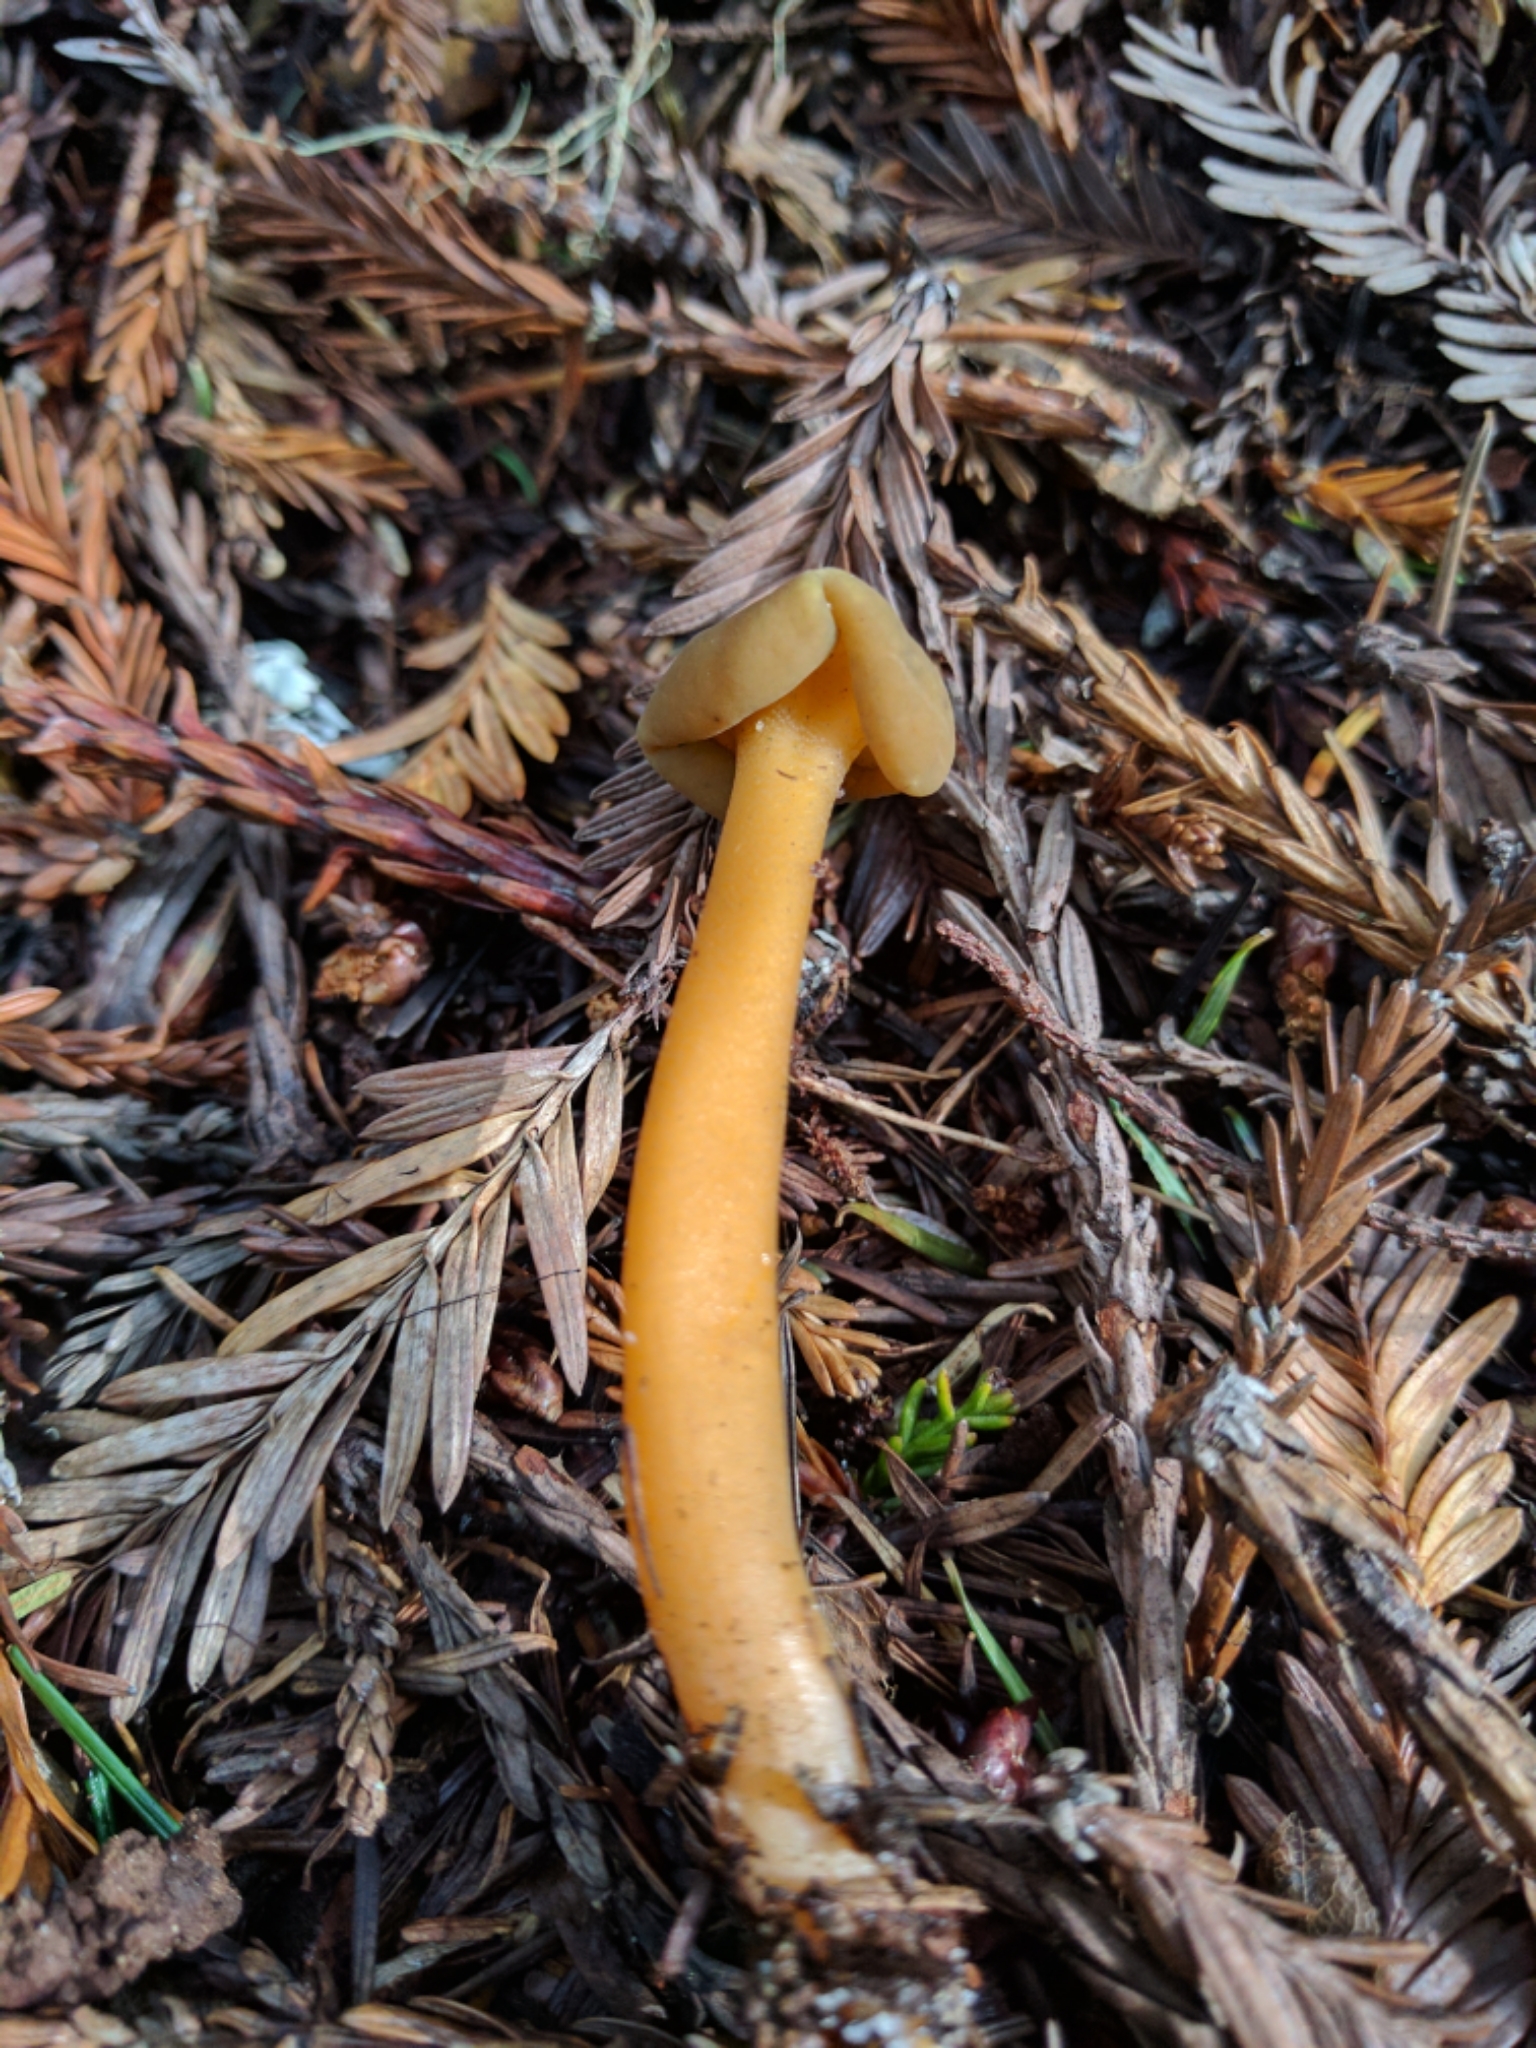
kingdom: Fungi
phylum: Ascomycota
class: Leotiomycetes
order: Leotiales
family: Leotiaceae
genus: Leotia
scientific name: Leotia lubrica
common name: Jellybaby
